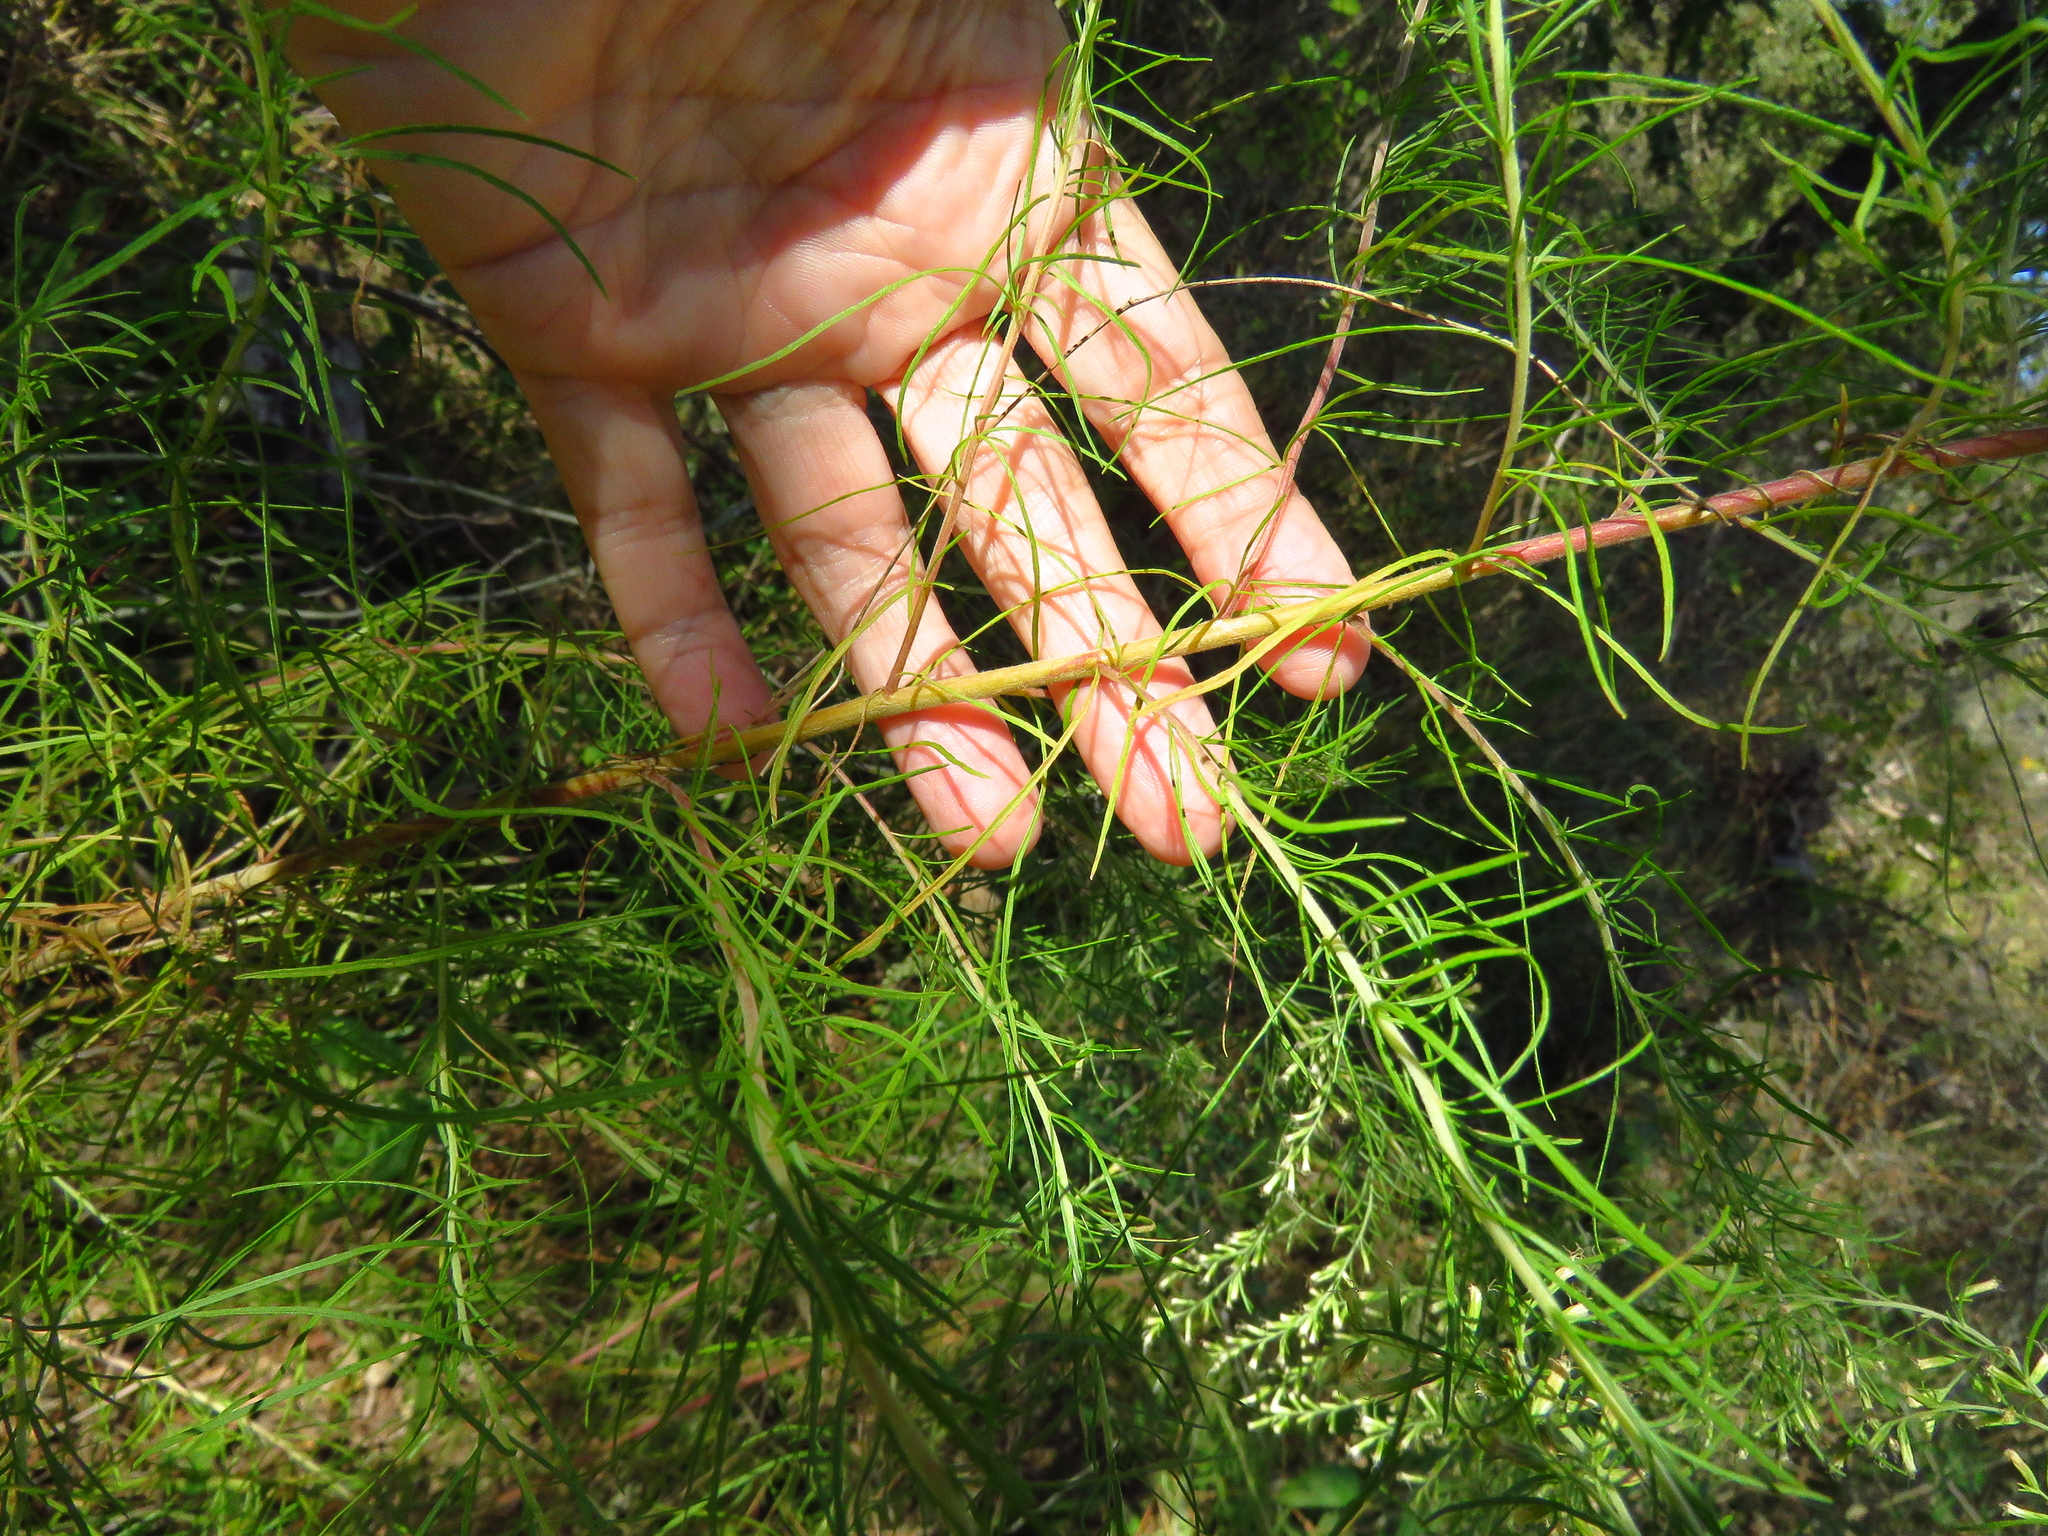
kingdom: Plantae
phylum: Tracheophyta
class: Magnoliopsida
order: Asterales
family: Asteraceae
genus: Baccharis
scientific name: Baccharis neglecta
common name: Roosevelt-weed
